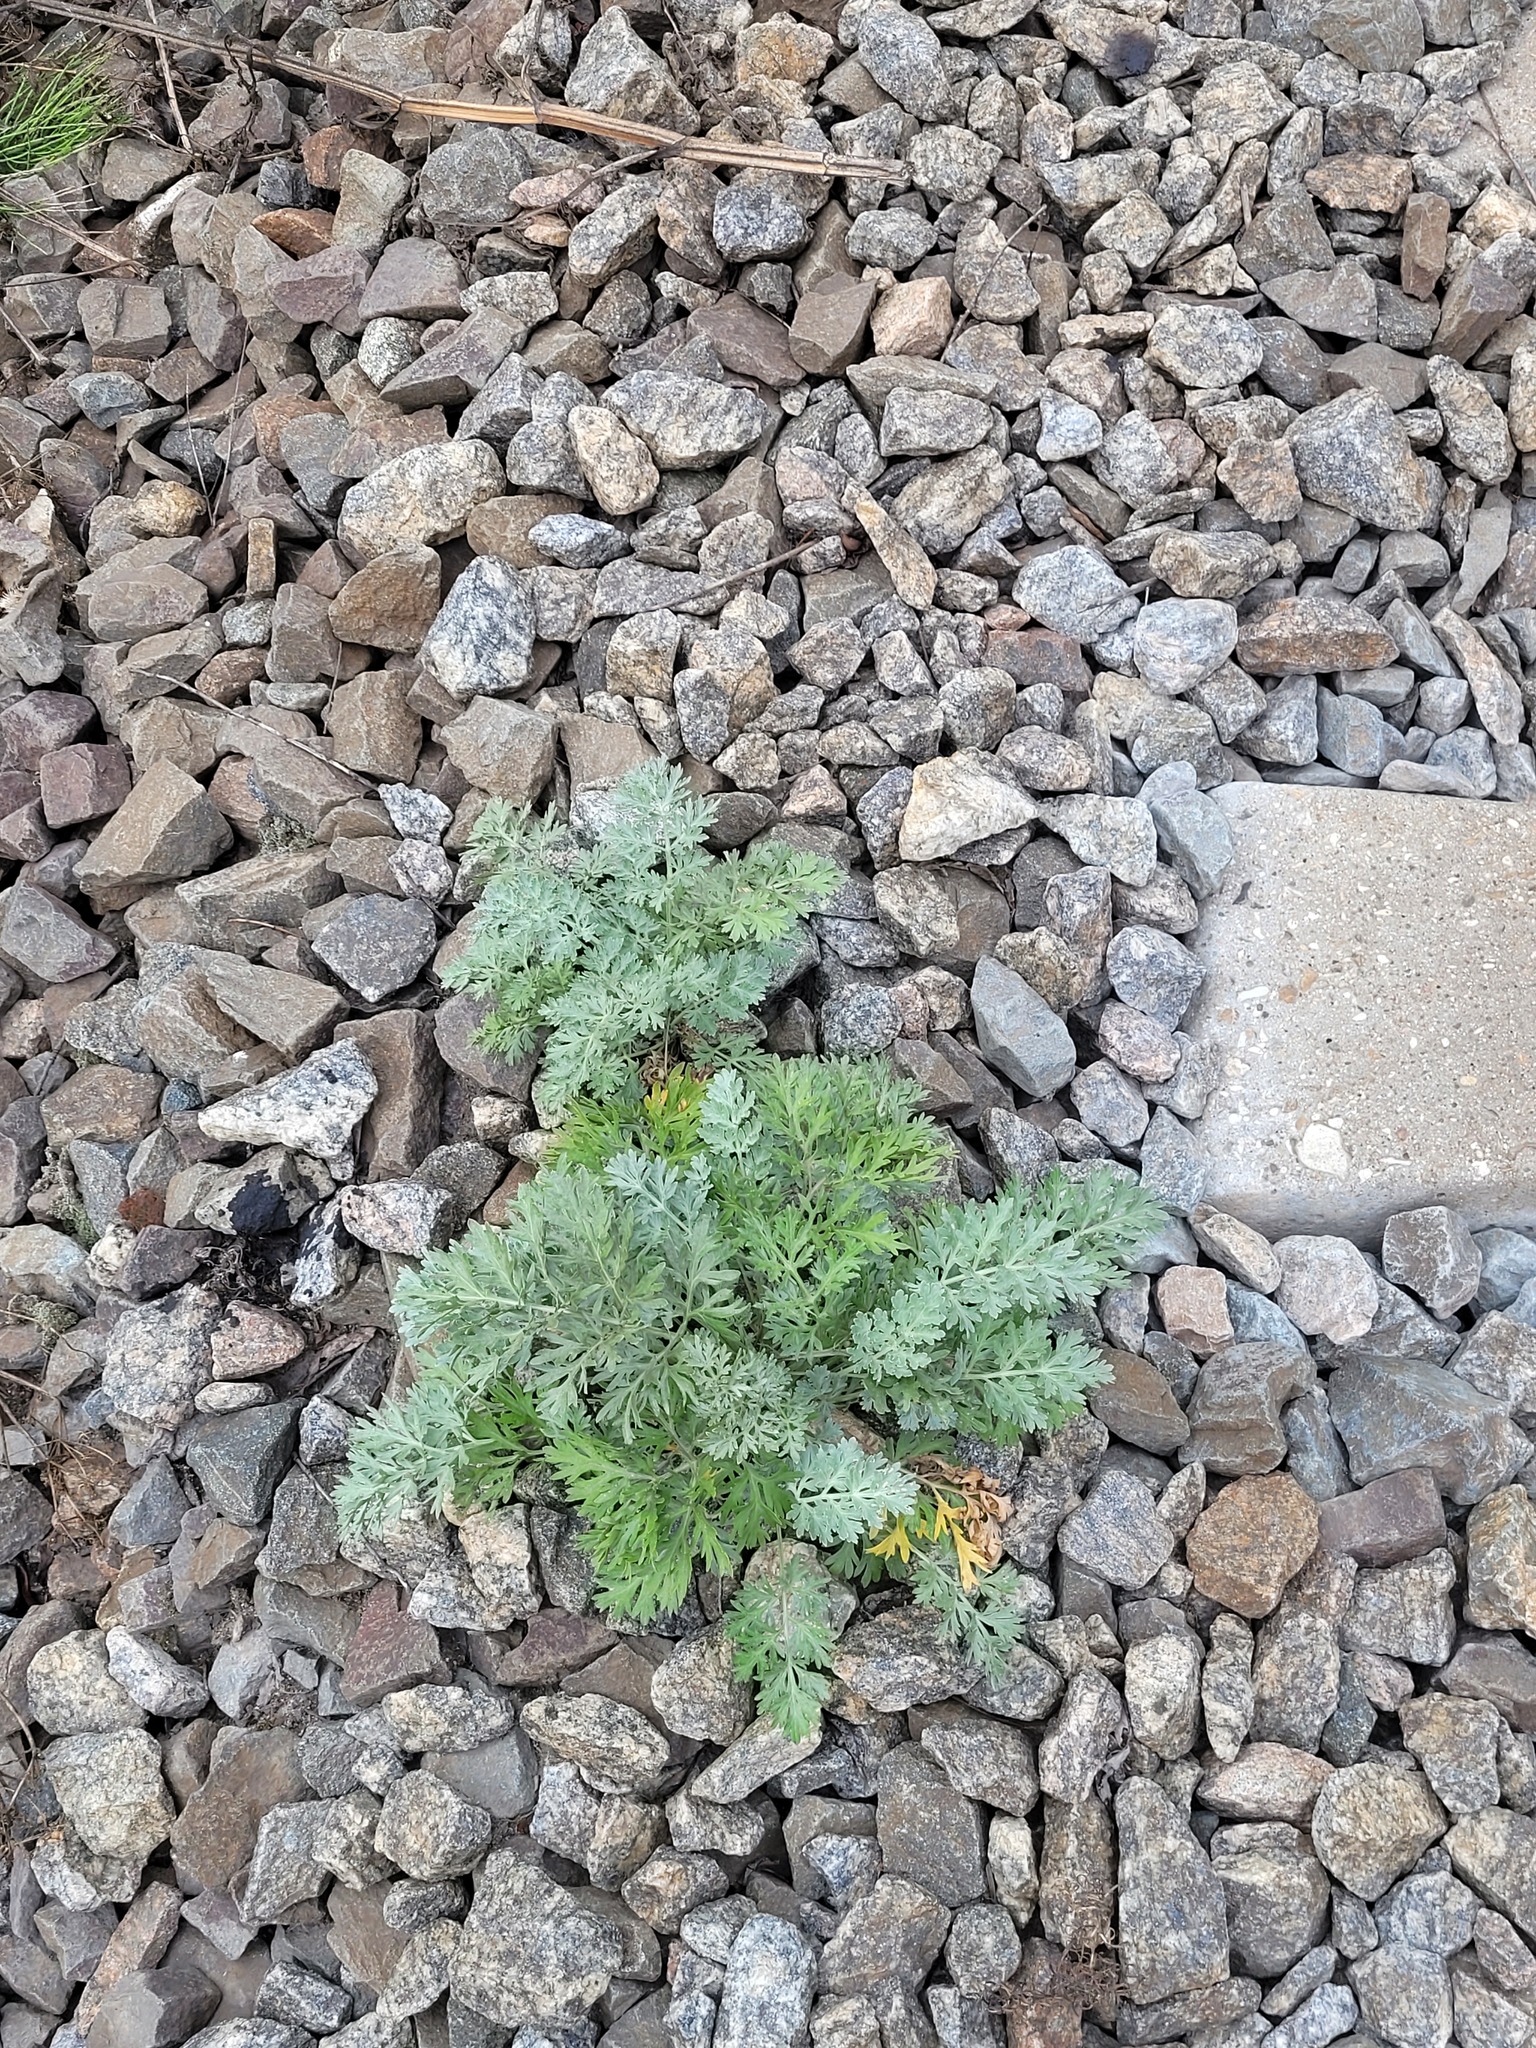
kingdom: Plantae
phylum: Tracheophyta
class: Magnoliopsida
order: Asterales
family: Asteraceae
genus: Artemisia
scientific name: Artemisia absinthium
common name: Wormwood
